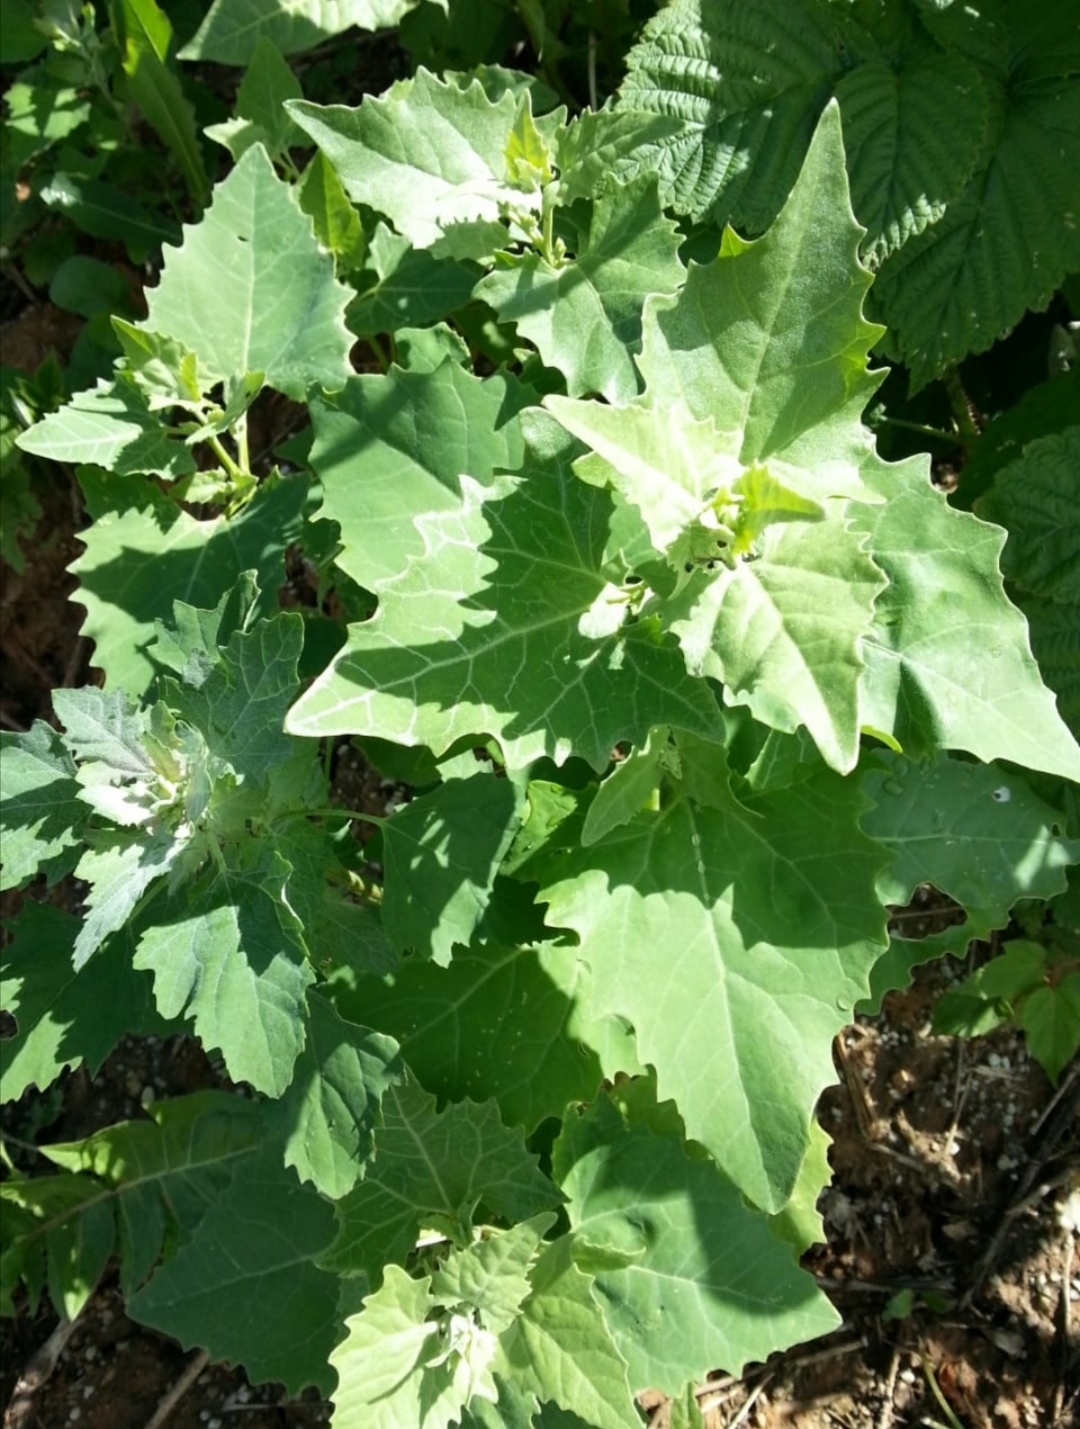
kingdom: Plantae
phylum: Tracheophyta
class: Magnoliopsida
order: Caryophyllales
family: Amaranthaceae
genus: Atriplex
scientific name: Atriplex sagittata
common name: Purple orache
